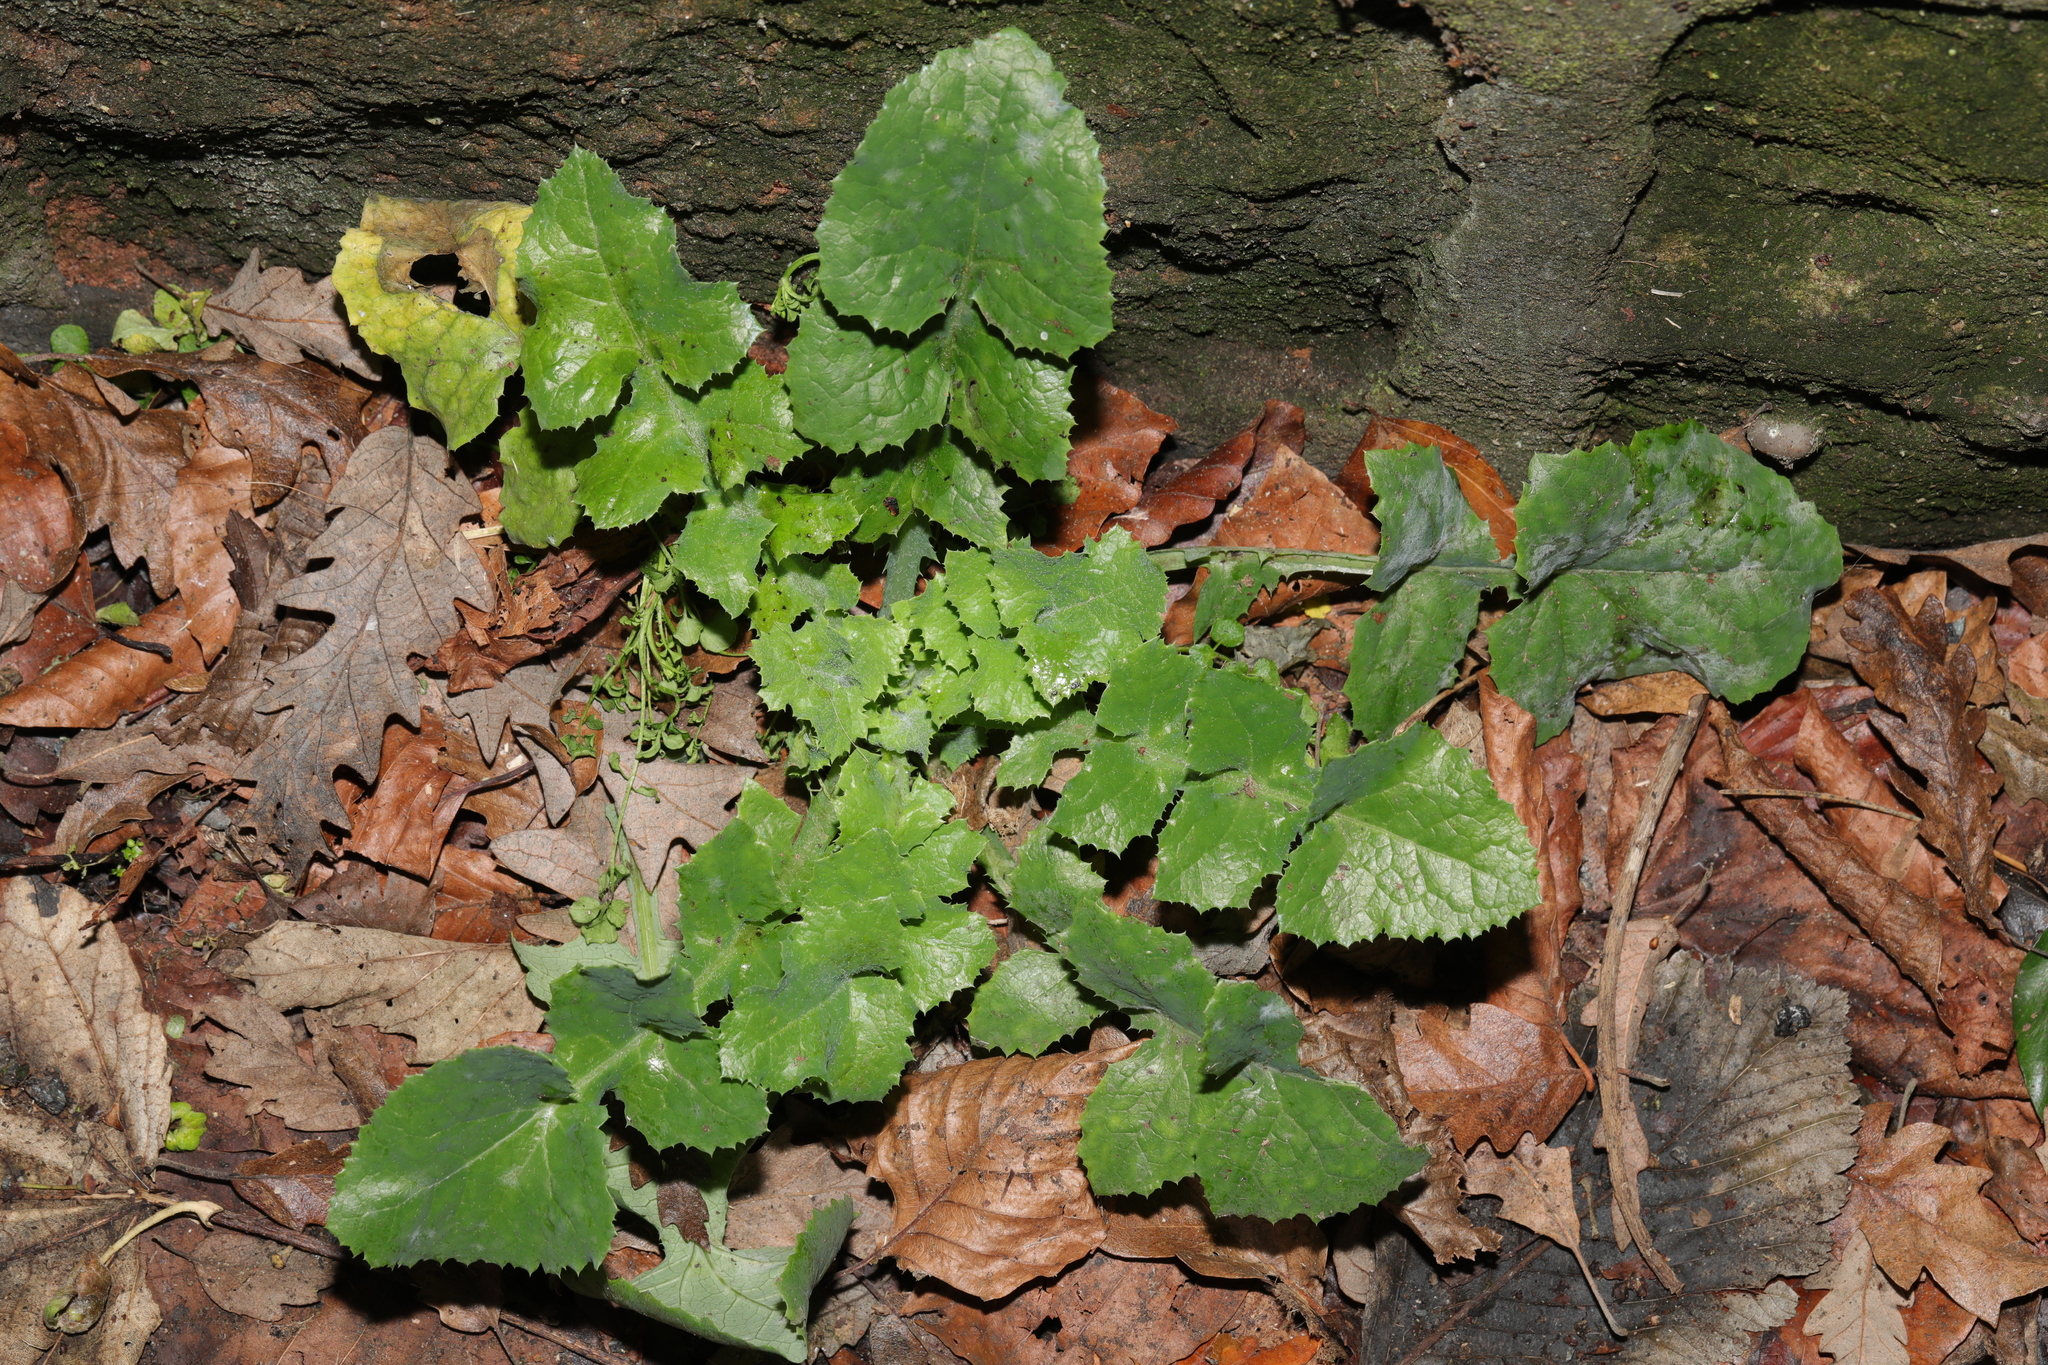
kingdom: Plantae
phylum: Tracheophyta
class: Magnoliopsida
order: Asterales
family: Asteraceae
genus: Sonchus
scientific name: Sonchus oleraceus
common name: Common sowthistle
